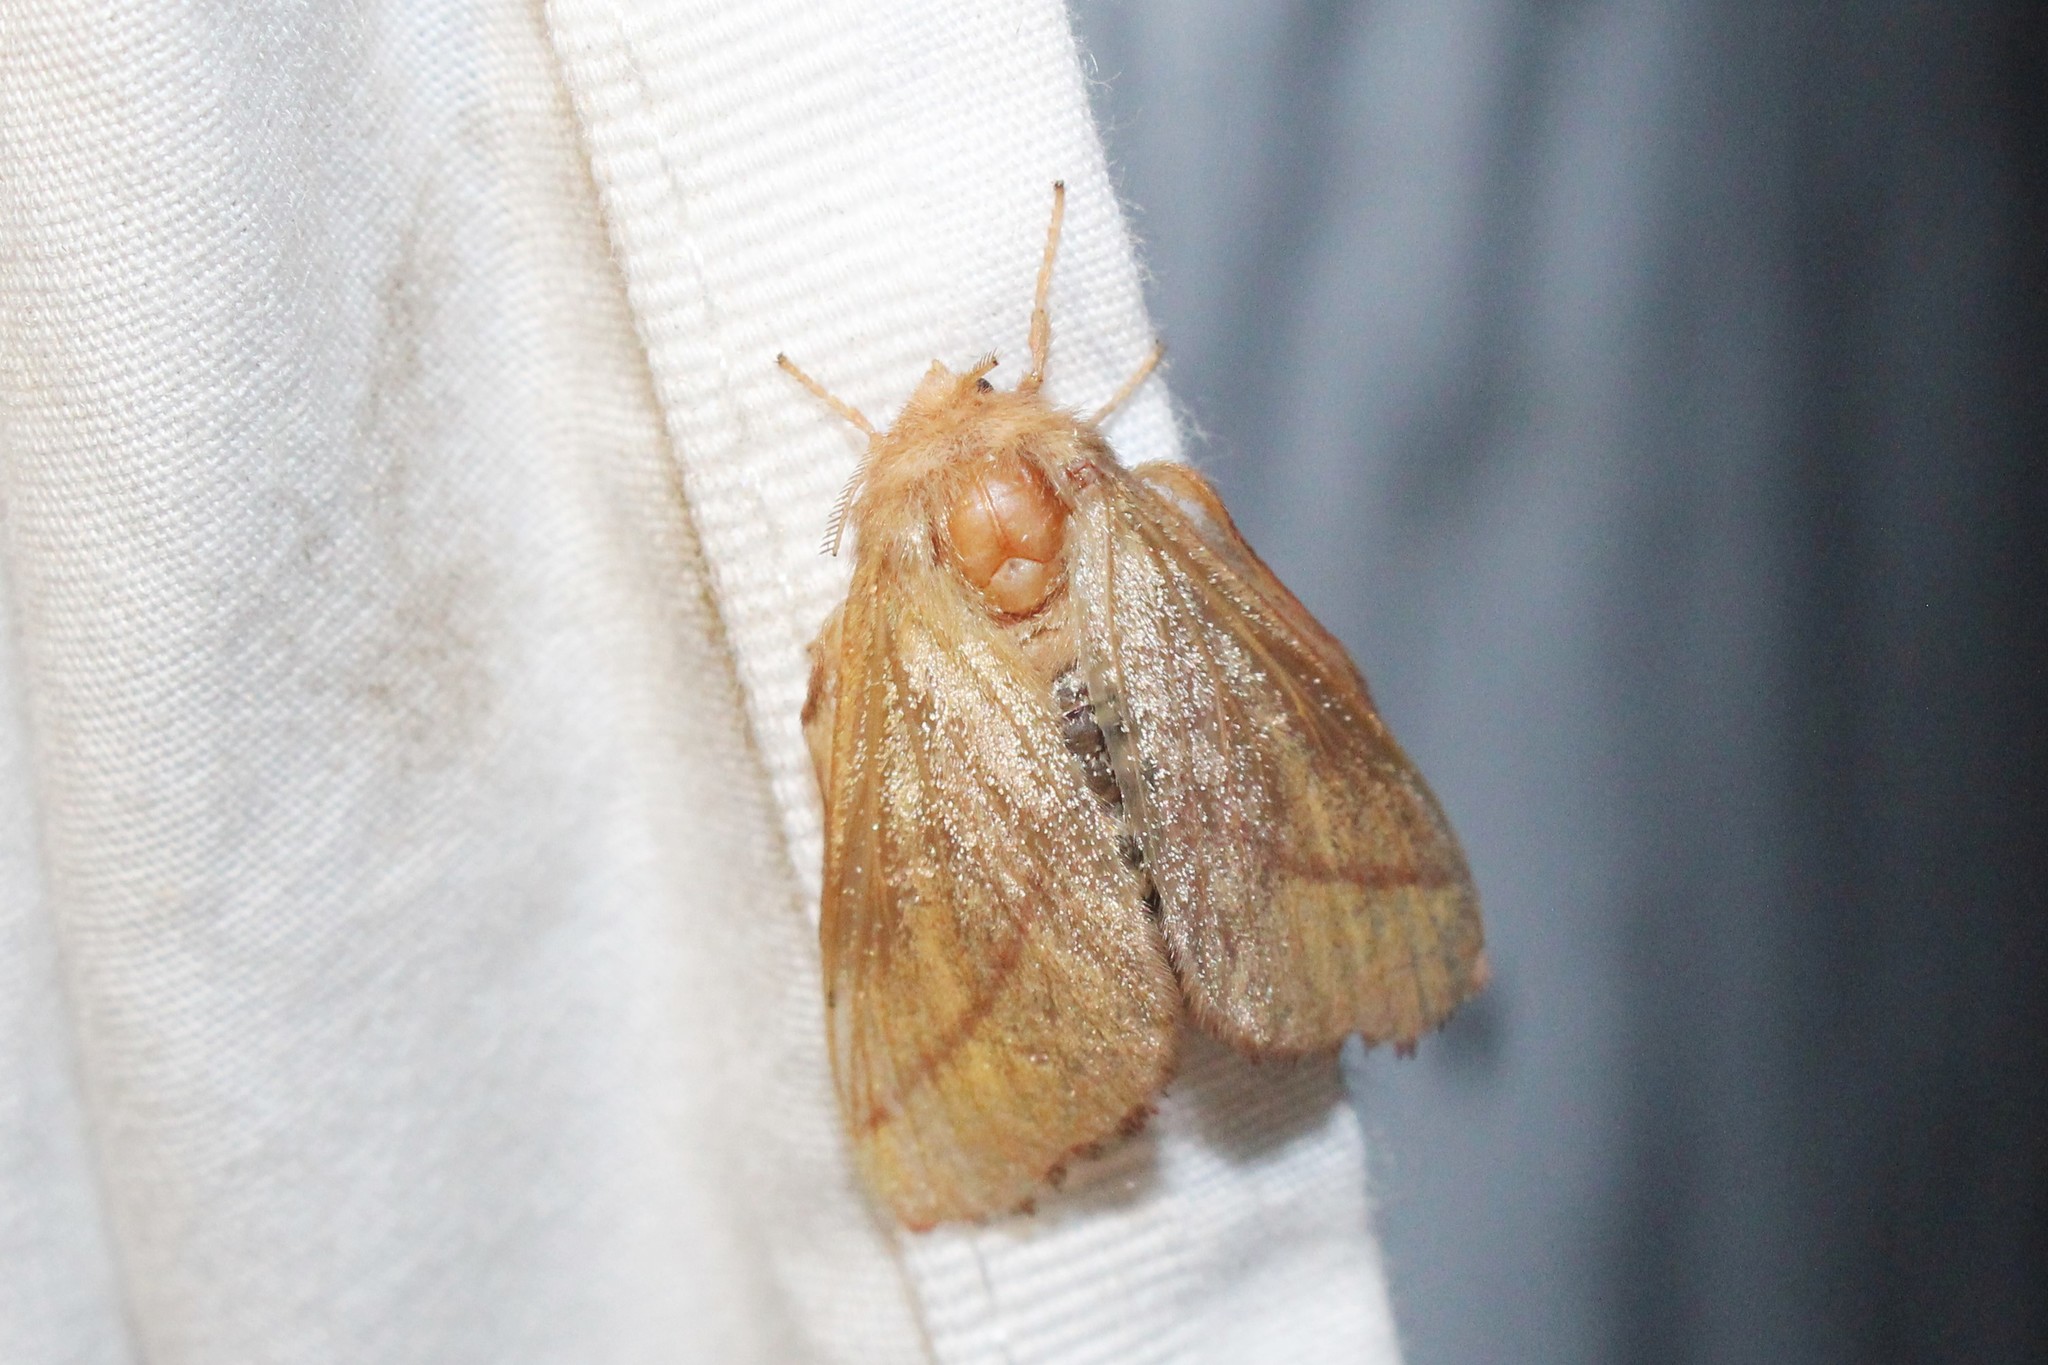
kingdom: Animalia
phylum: Arthropoda
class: Insecta
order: Lepidoptera
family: Lasiocampidae
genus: Malacosoma
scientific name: Malacosoma disstria
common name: Forest tent caterpillar
